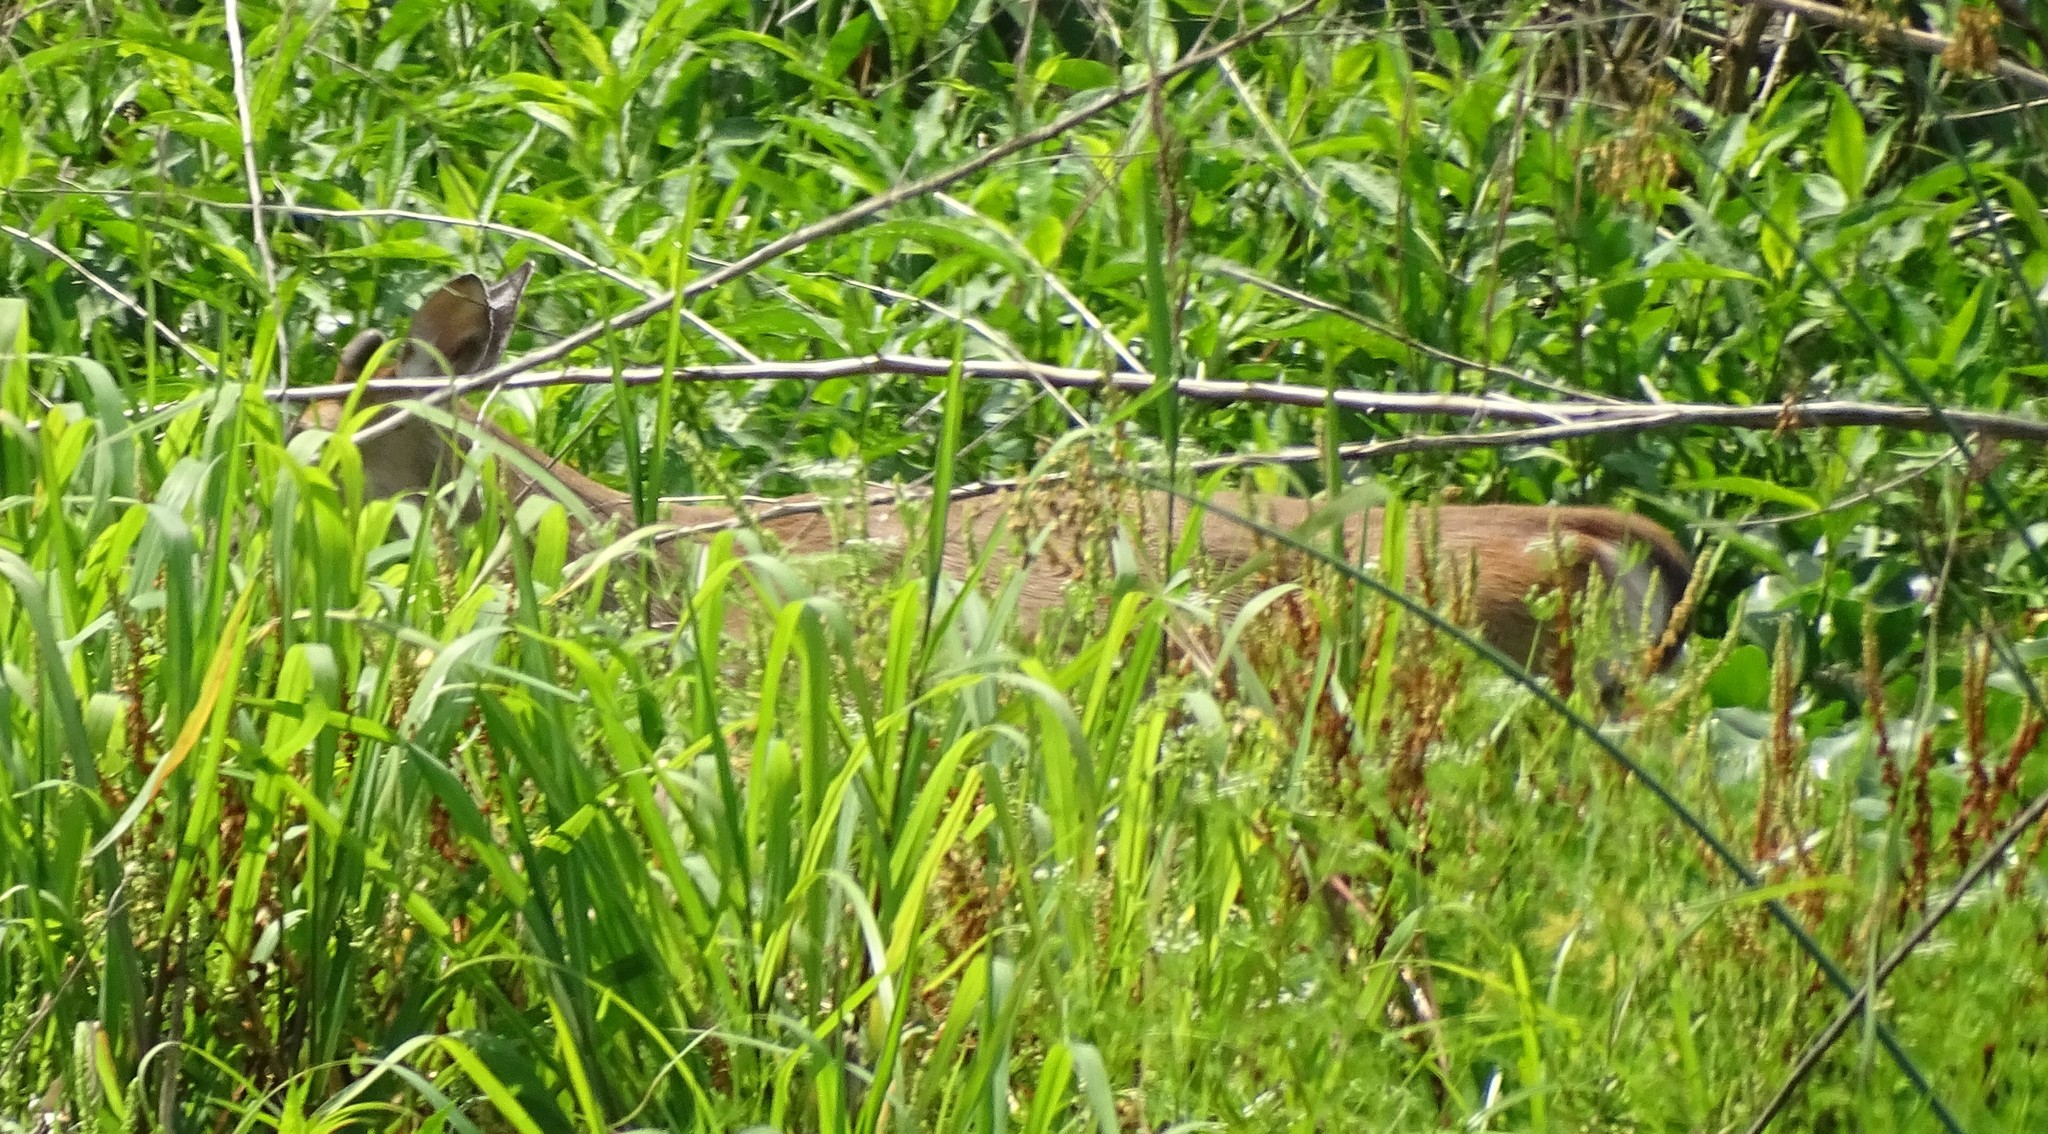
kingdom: Animalia
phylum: Chordata
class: Mammalia
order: Artiodactyla
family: Cervidae
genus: Odocoileus
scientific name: Odocoileus virginianus
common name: White-tailed deer
